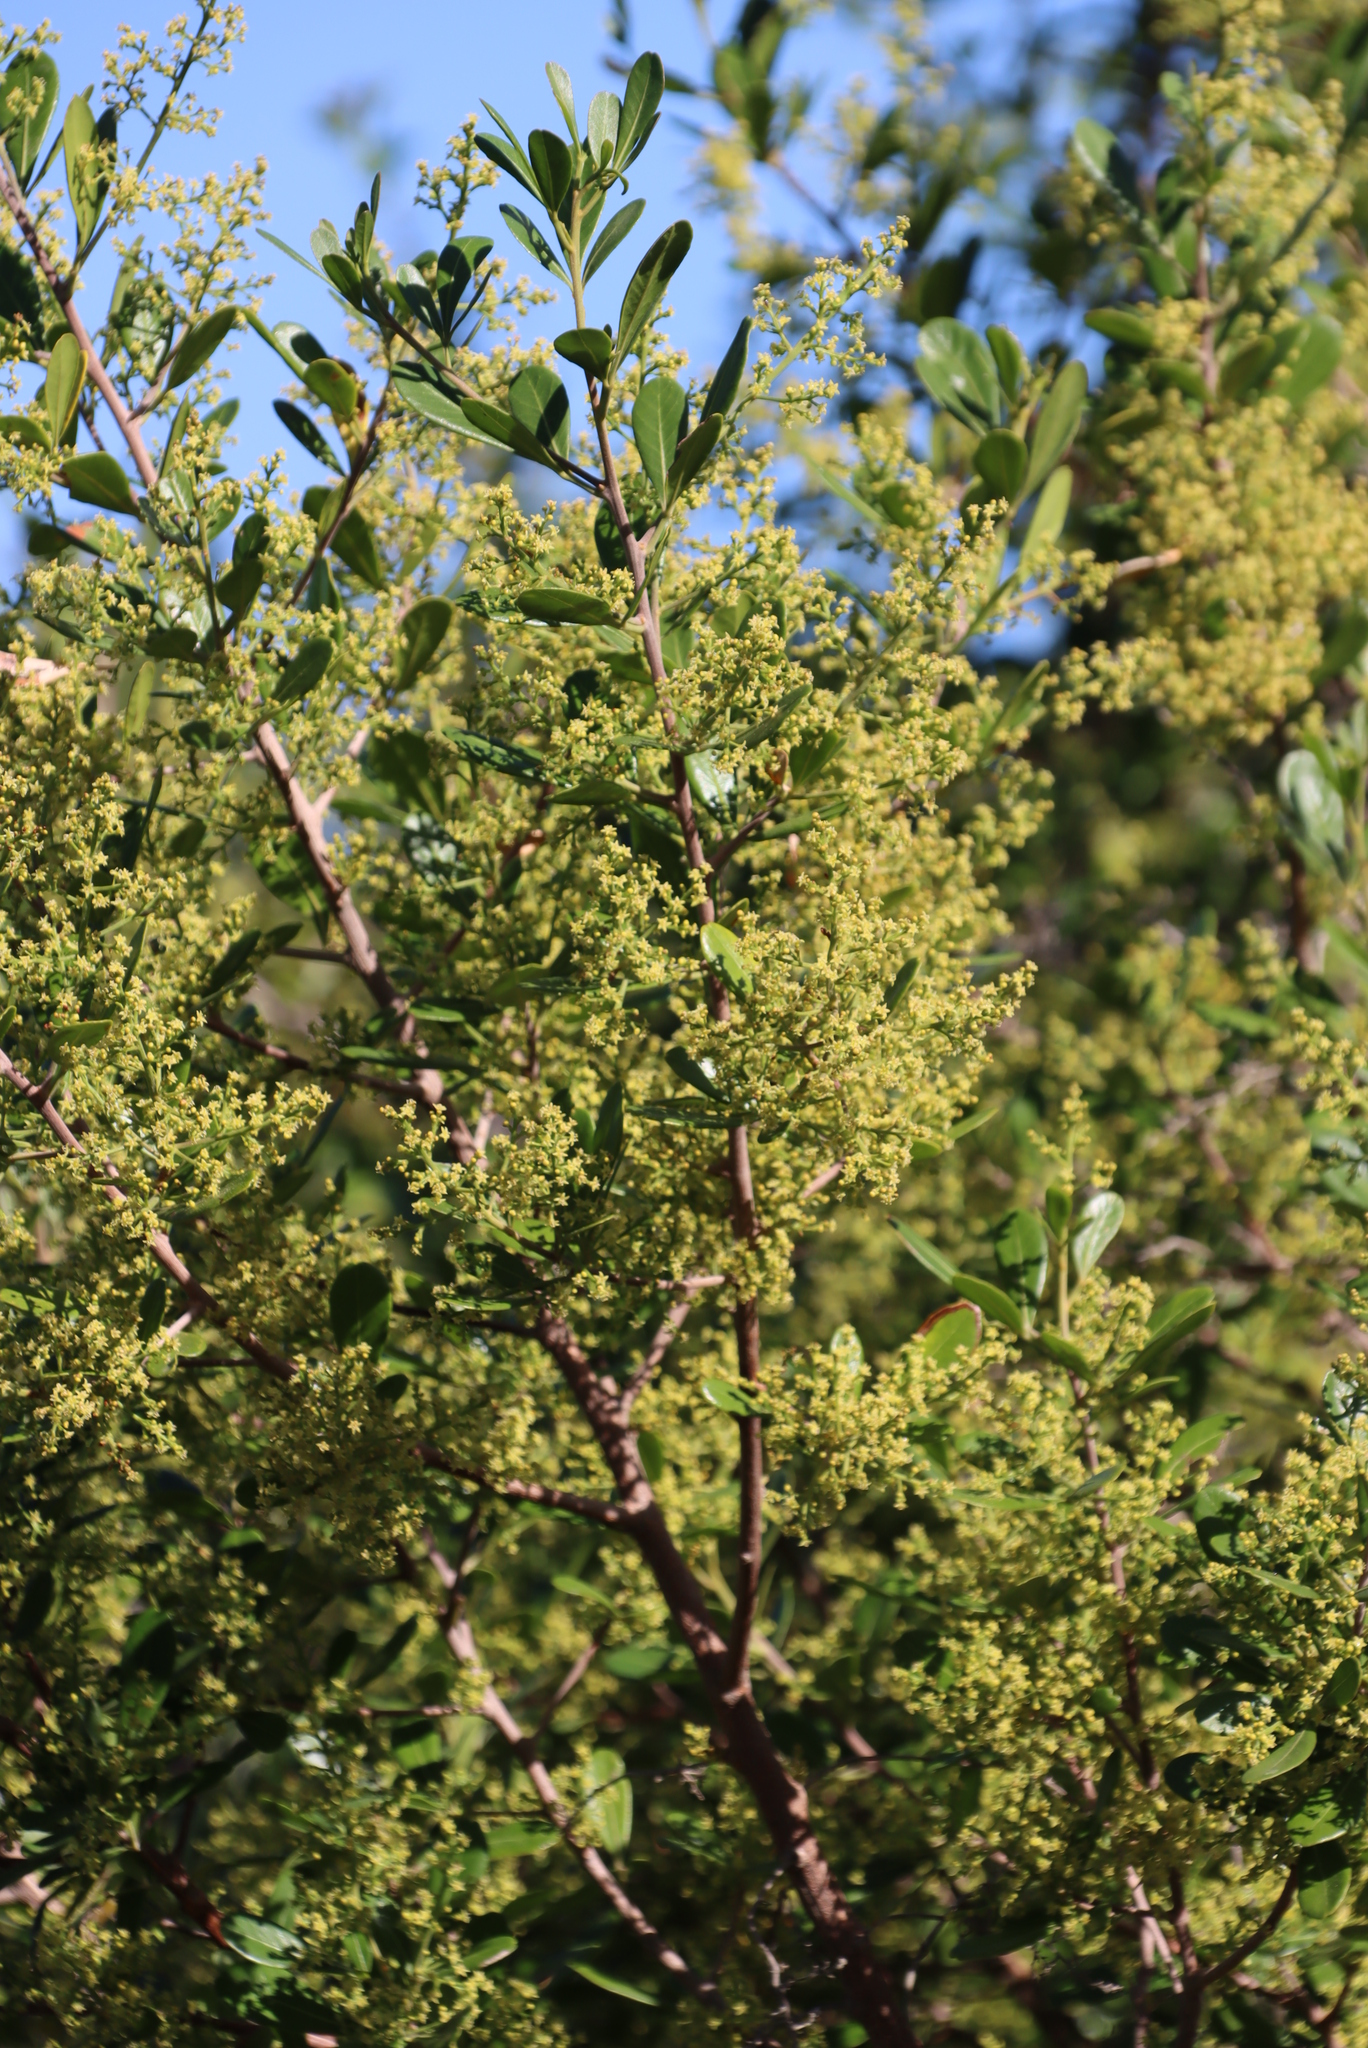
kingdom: Plantae
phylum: Tracheophyta
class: Magnoliopsida
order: Sapindales
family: Anacardiaceae
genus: Searsia
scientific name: Searsia lucida
